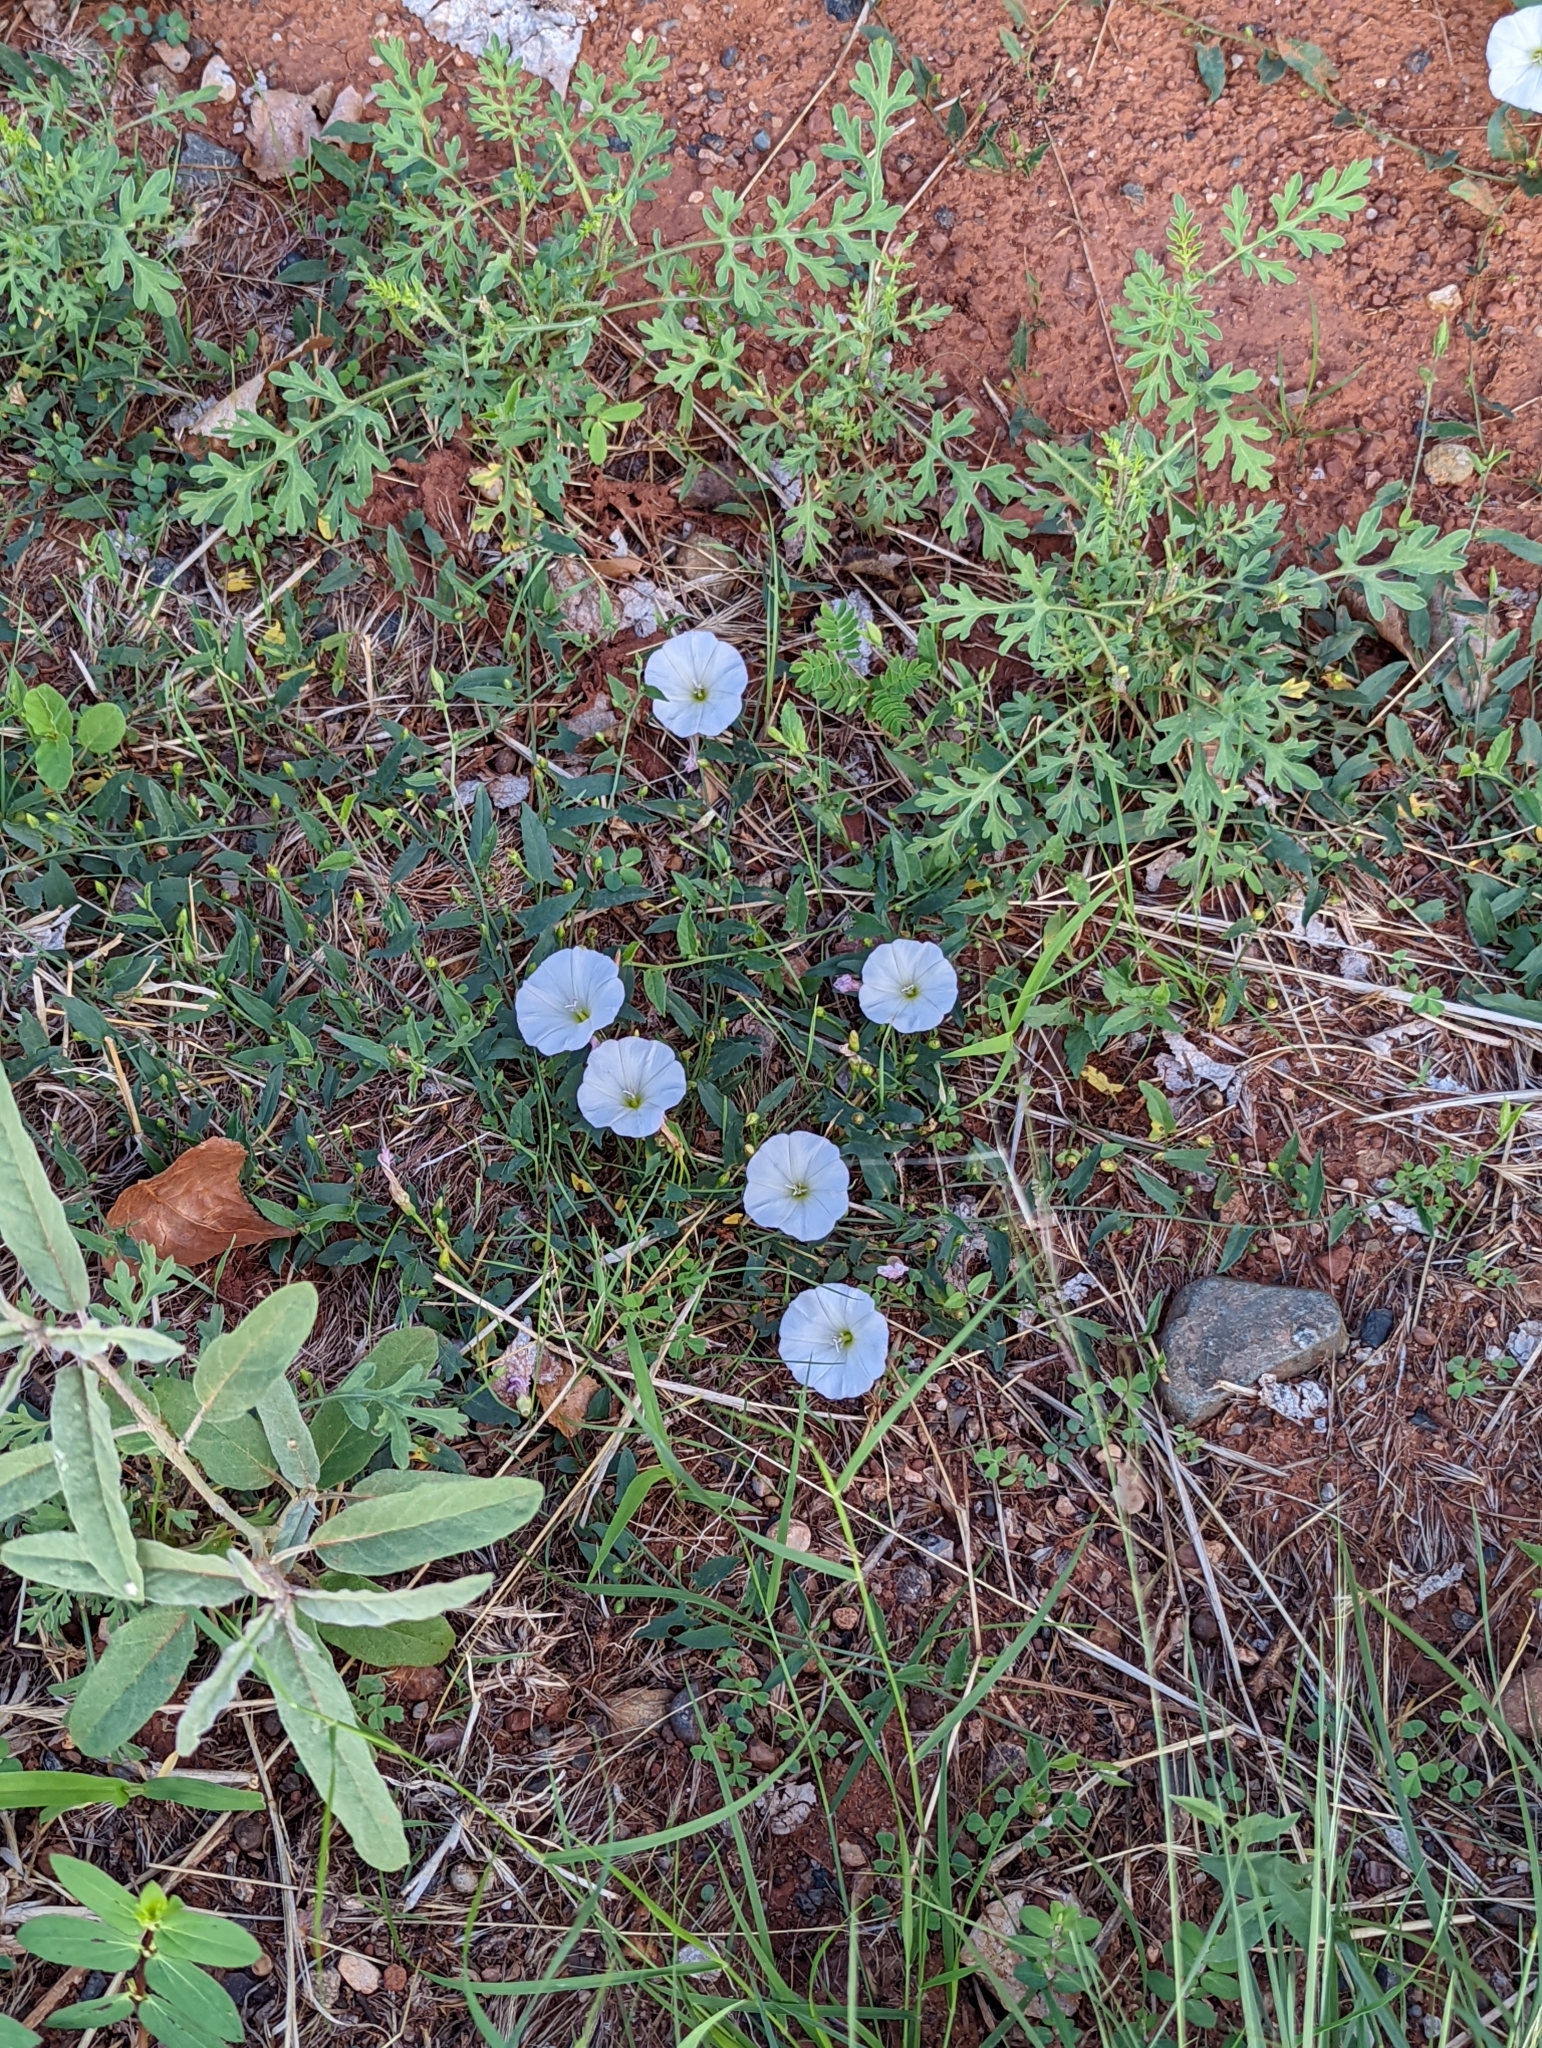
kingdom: Plantae
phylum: Tracheophyta
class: Magnoliopsida
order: Solanales
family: Convolvulaceae
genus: Convolvulus
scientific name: Convolvulus arvensis
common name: Field bindweed
